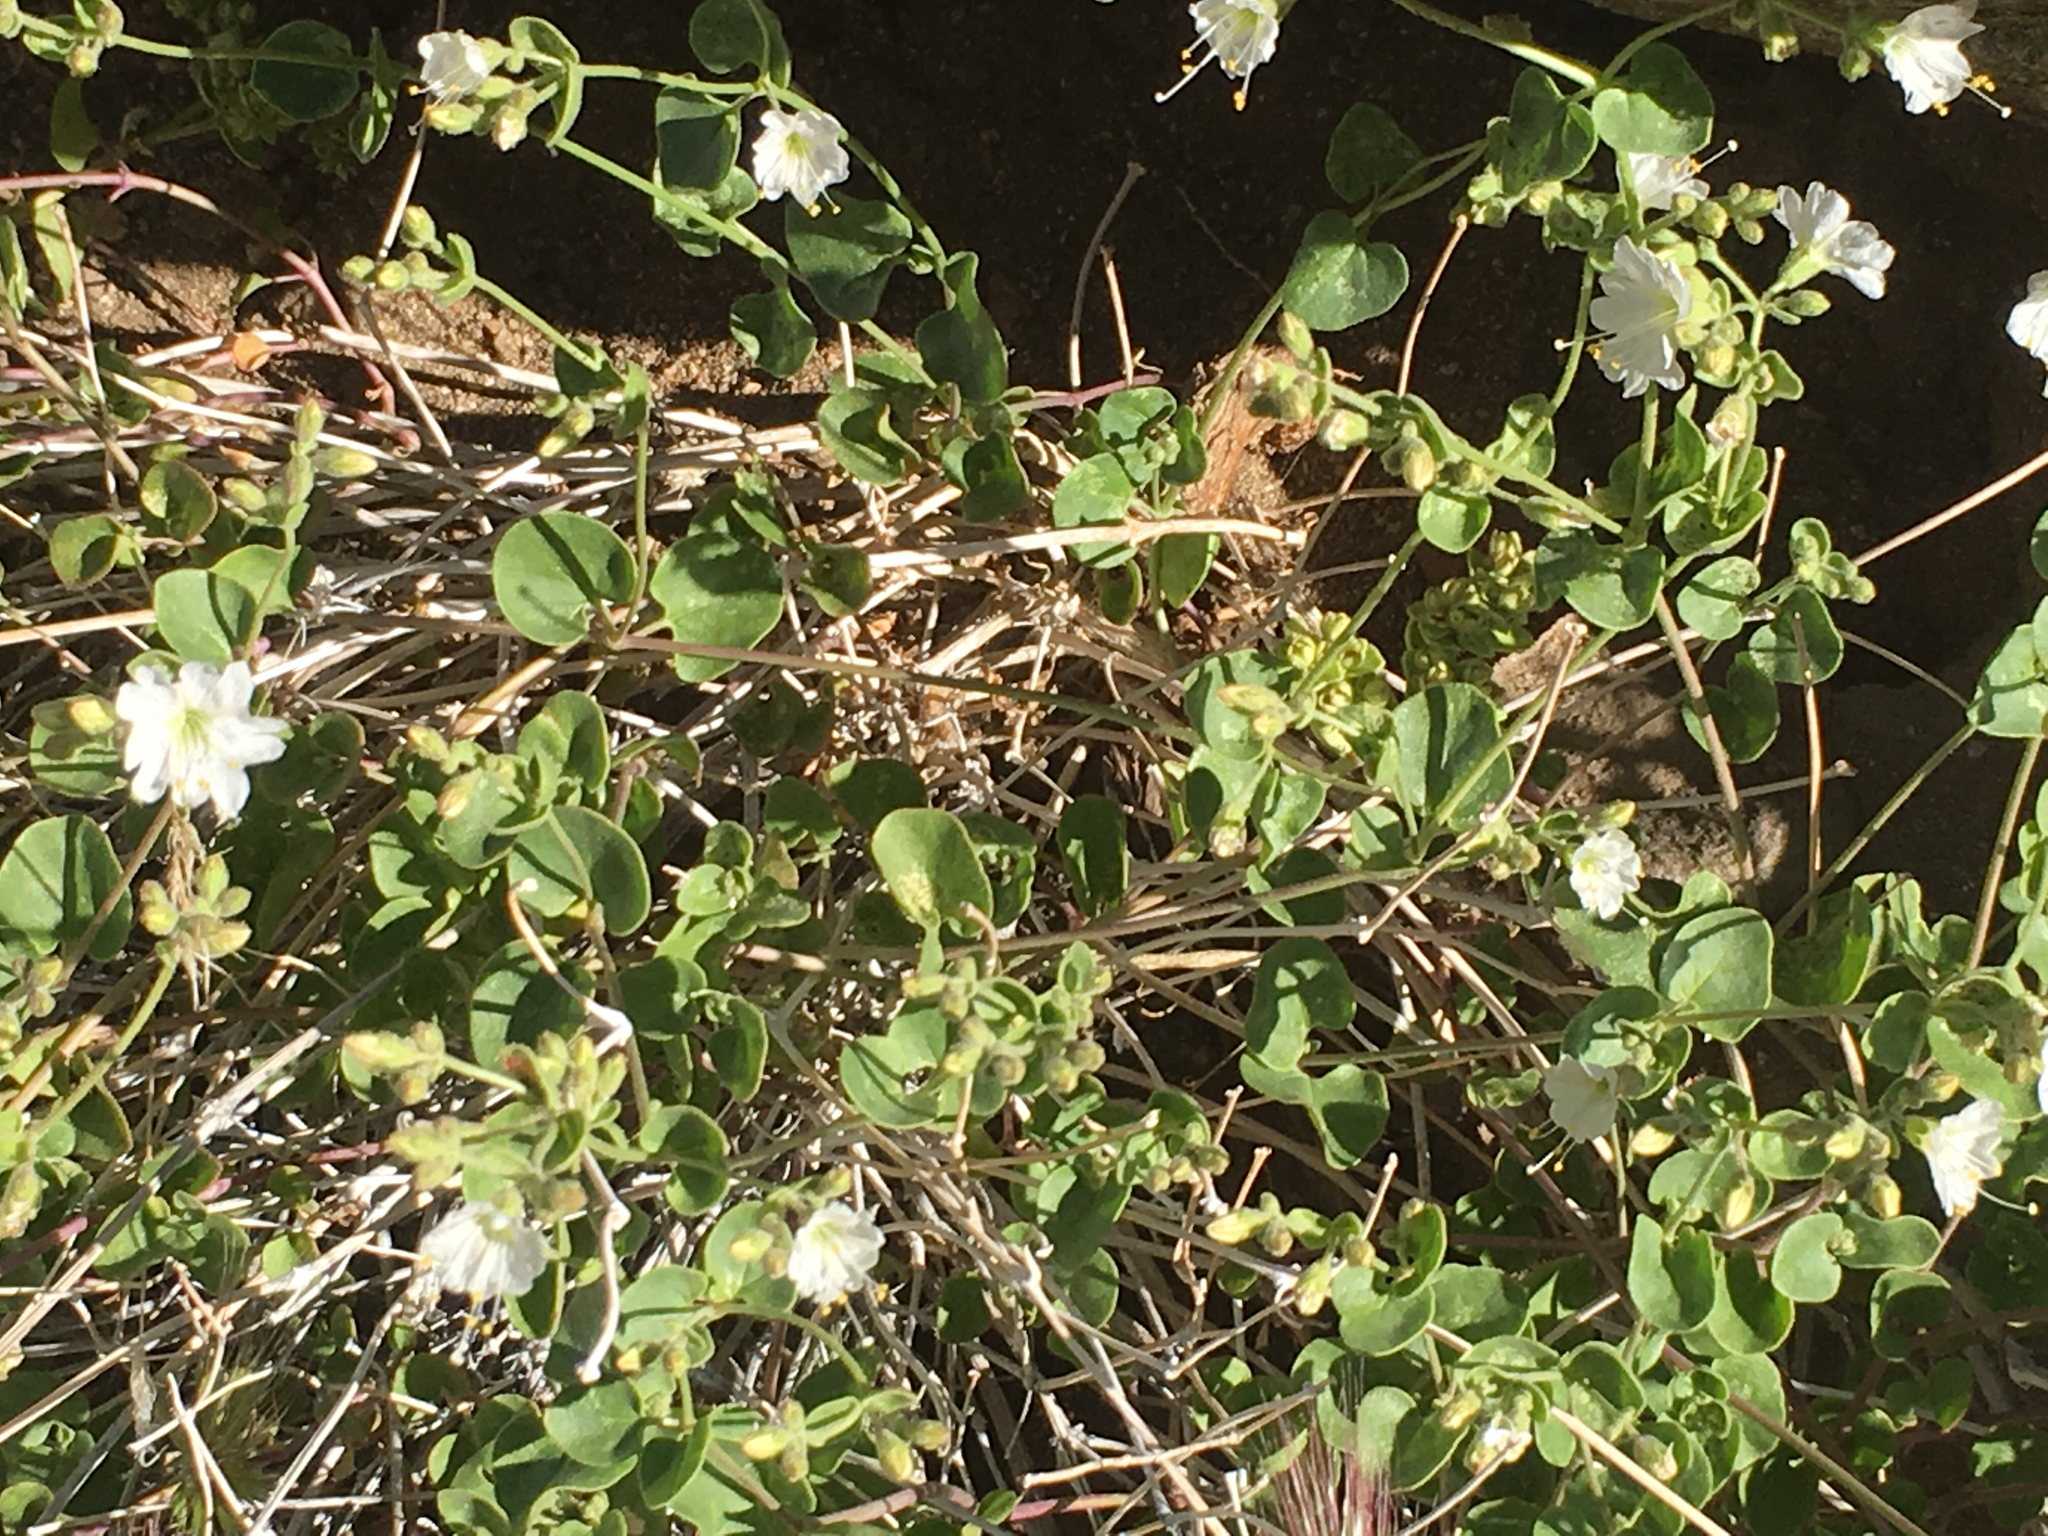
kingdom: Plantae
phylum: Tracheophyta
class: Magnoliopsida
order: Caryophyllales
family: Nyctaginaceae
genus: Mirabilis
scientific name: Mirabilis laevis
